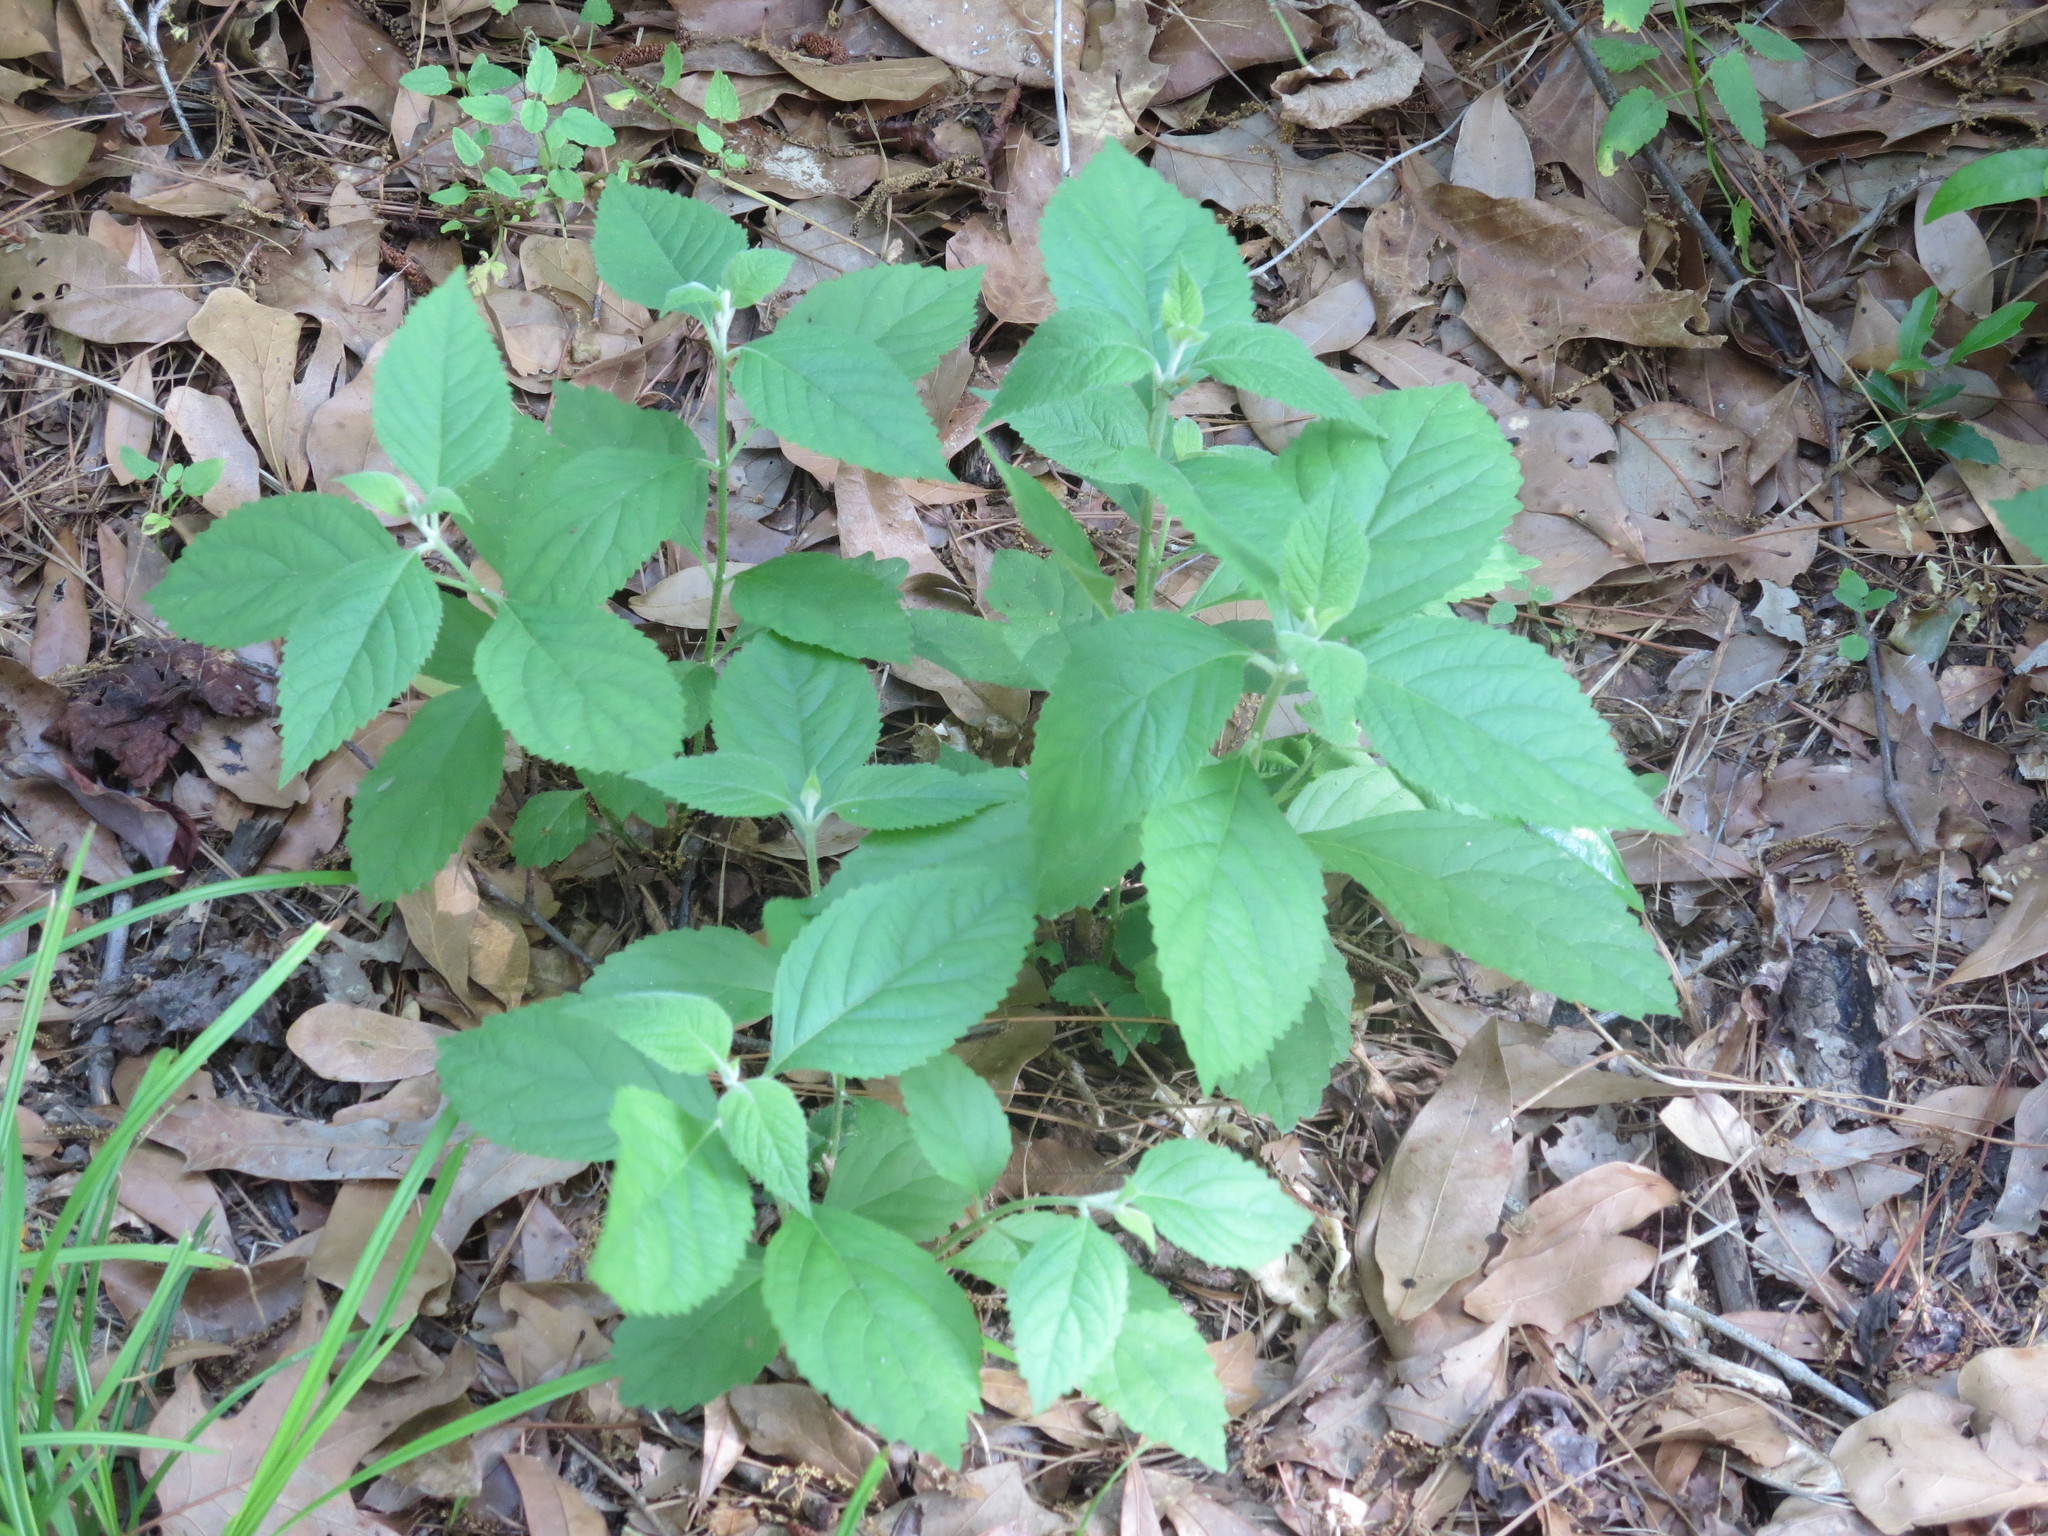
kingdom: Plantae
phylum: Tracheophyta
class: Magnoliopsida
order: Lamiales
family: Lamiaceae
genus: Callicarpa
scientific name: Callicarpa americana
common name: American beautyberry
